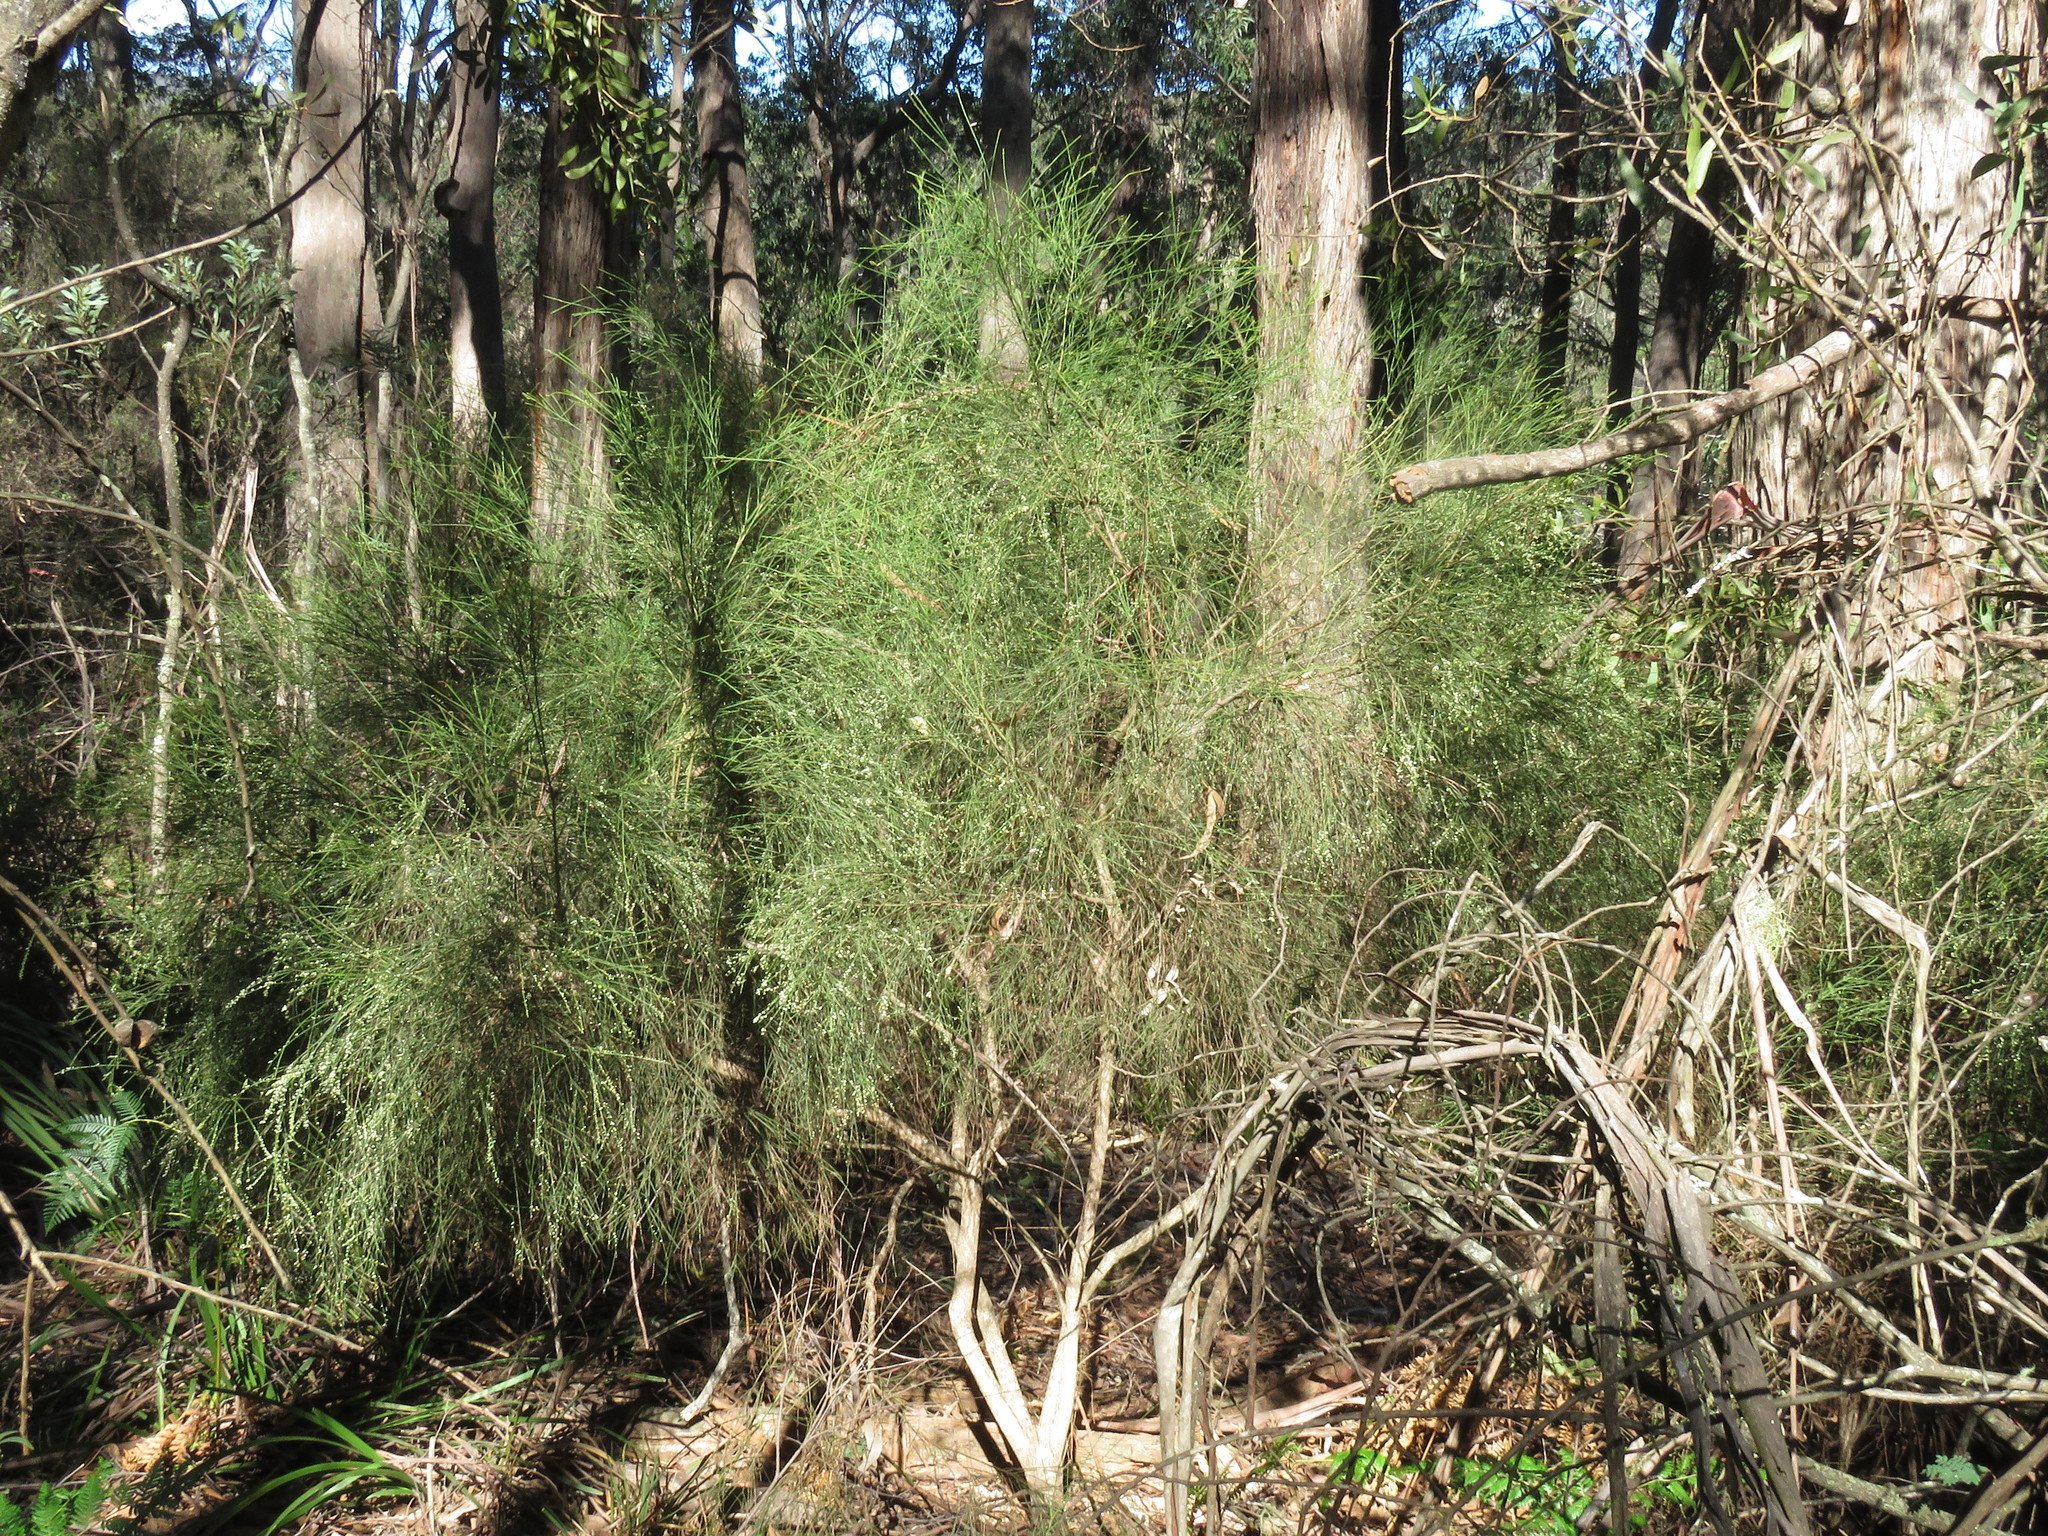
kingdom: Plantae
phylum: Tracheophyta
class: Magnoliopsida
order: Santalales
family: Amphorogynaceae
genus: Choretrum
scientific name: Choretrum candollei
